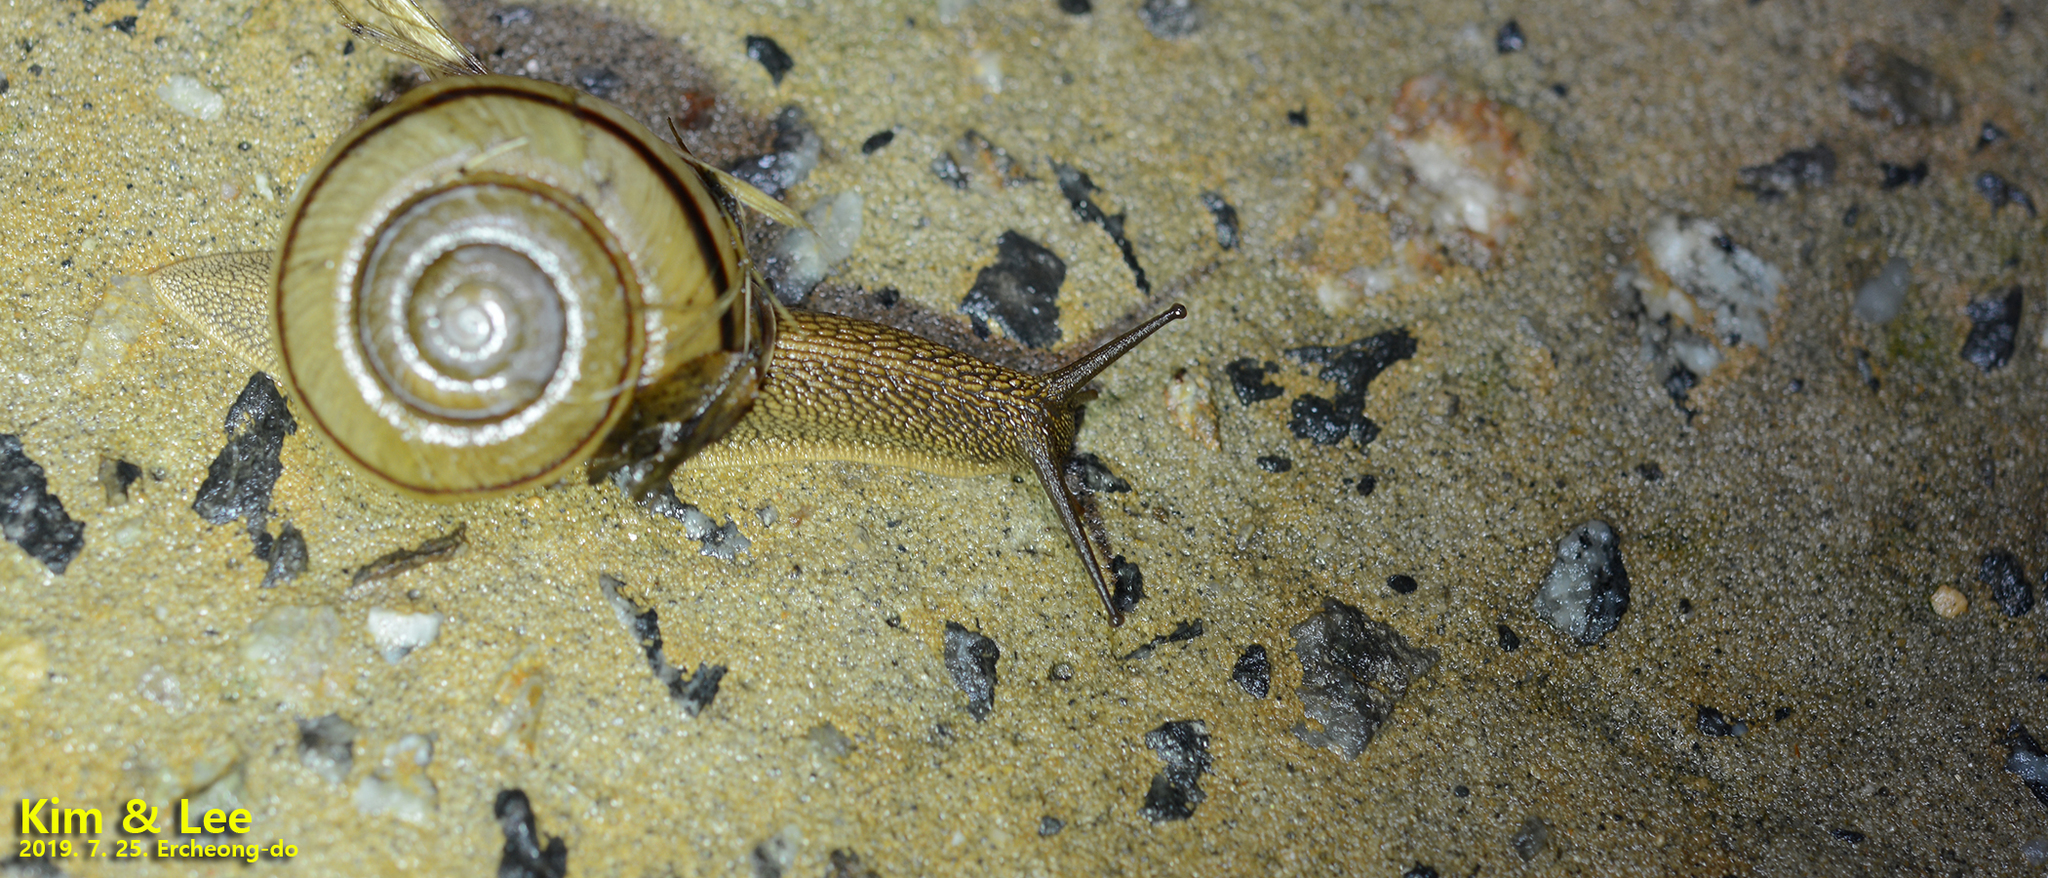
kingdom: Animalia
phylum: Mollusca
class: Gastropoda
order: Stylommatophora
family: Camaenidae
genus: Nesiohelix
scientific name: Nesiohelix samarangae
